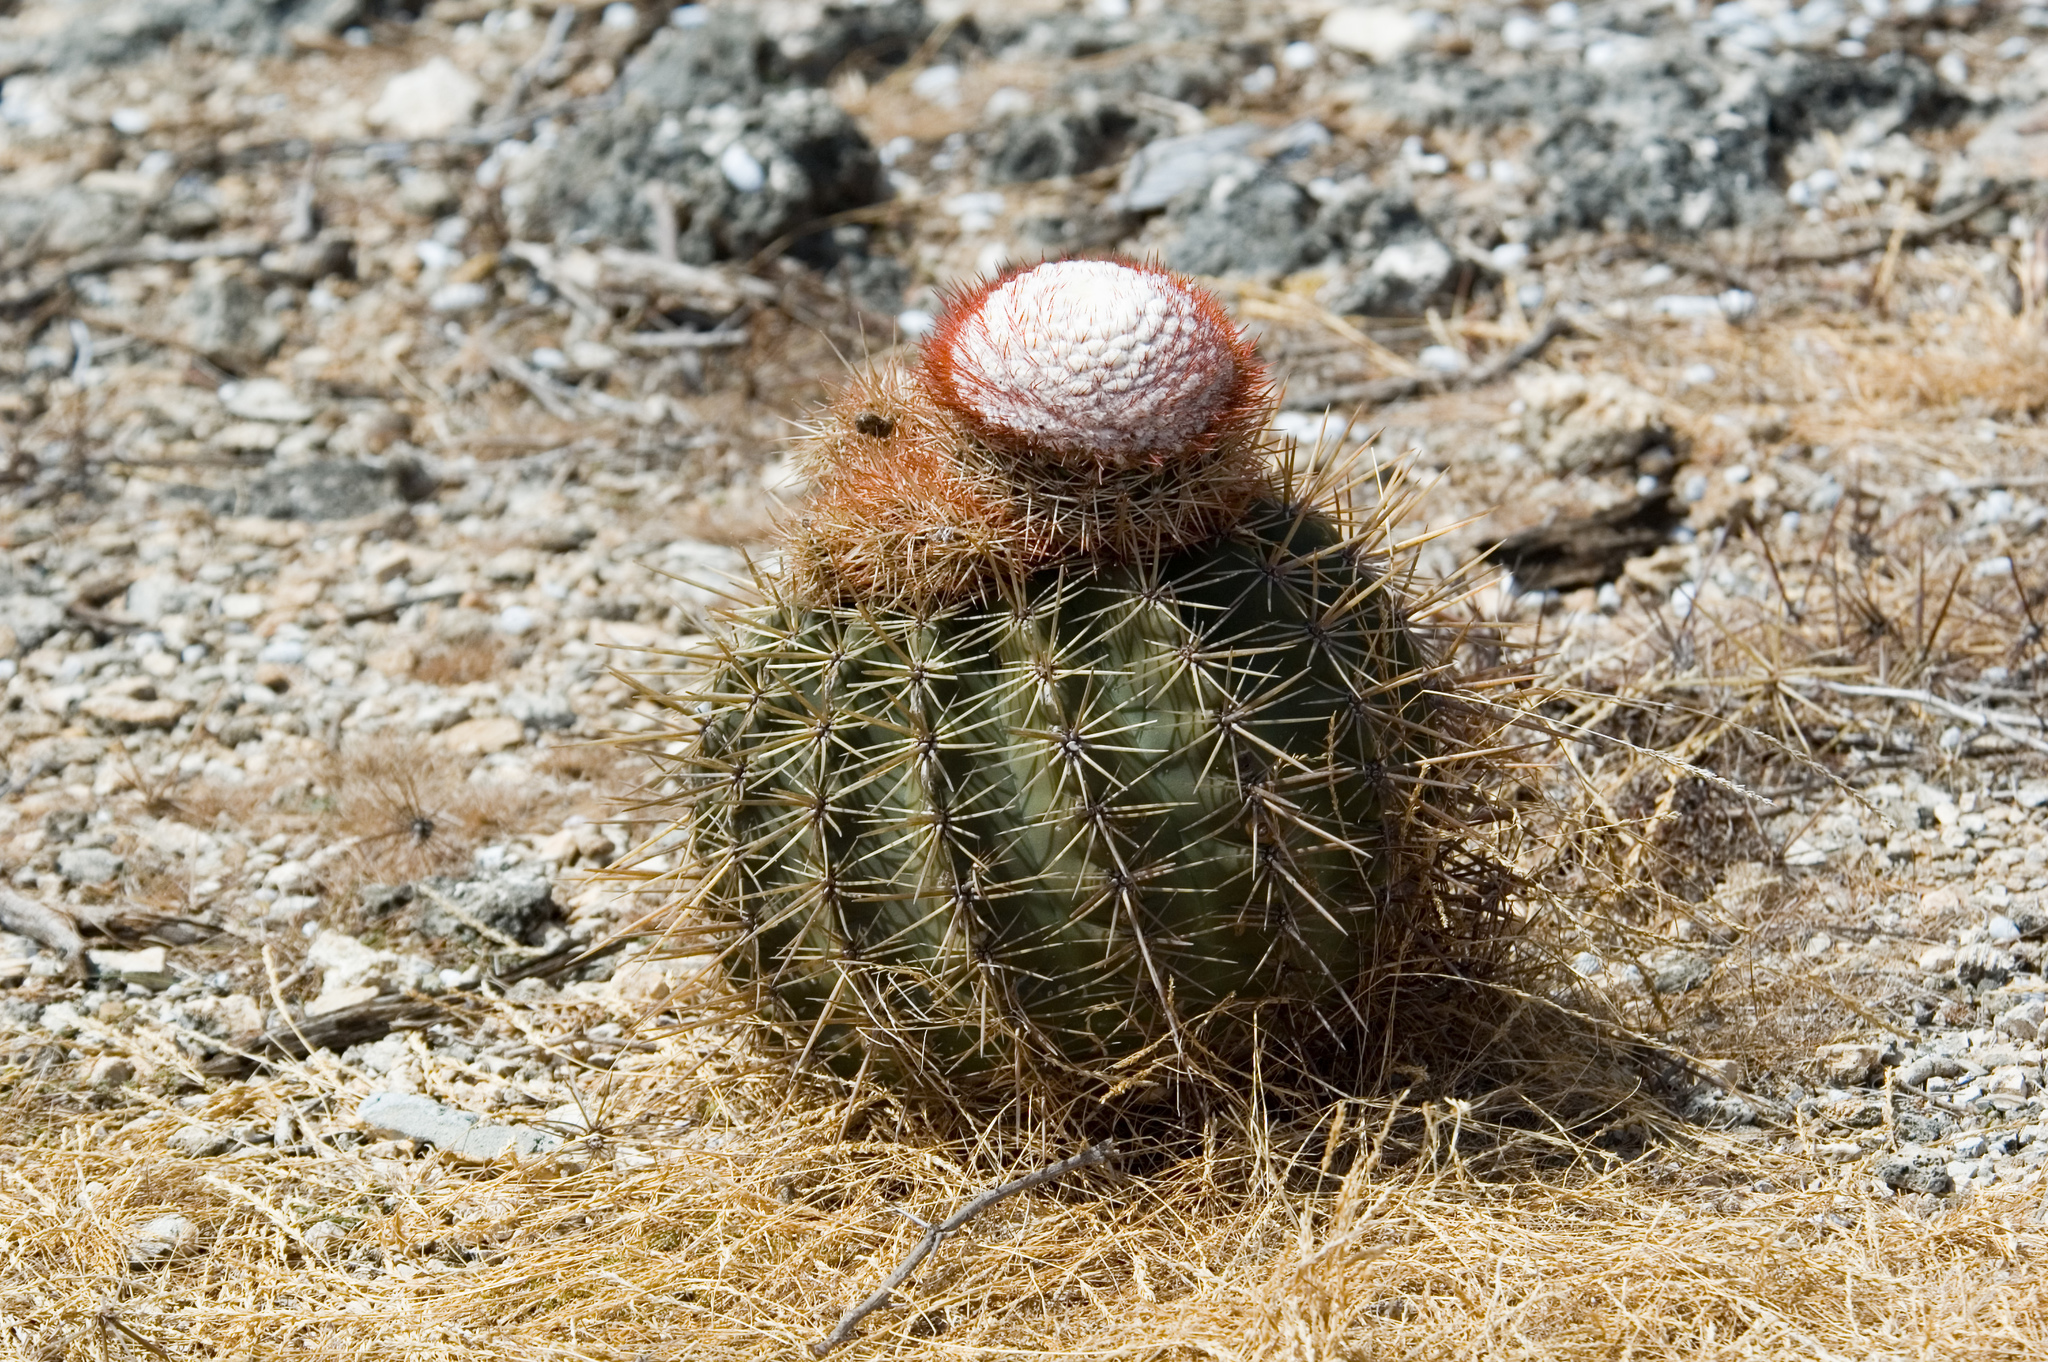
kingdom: Plantae
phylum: Tracheophyta
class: Magnoliopsida
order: Caryophyllales
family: Cactaceae
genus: Melocactus
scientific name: Melocactus macracanthos
